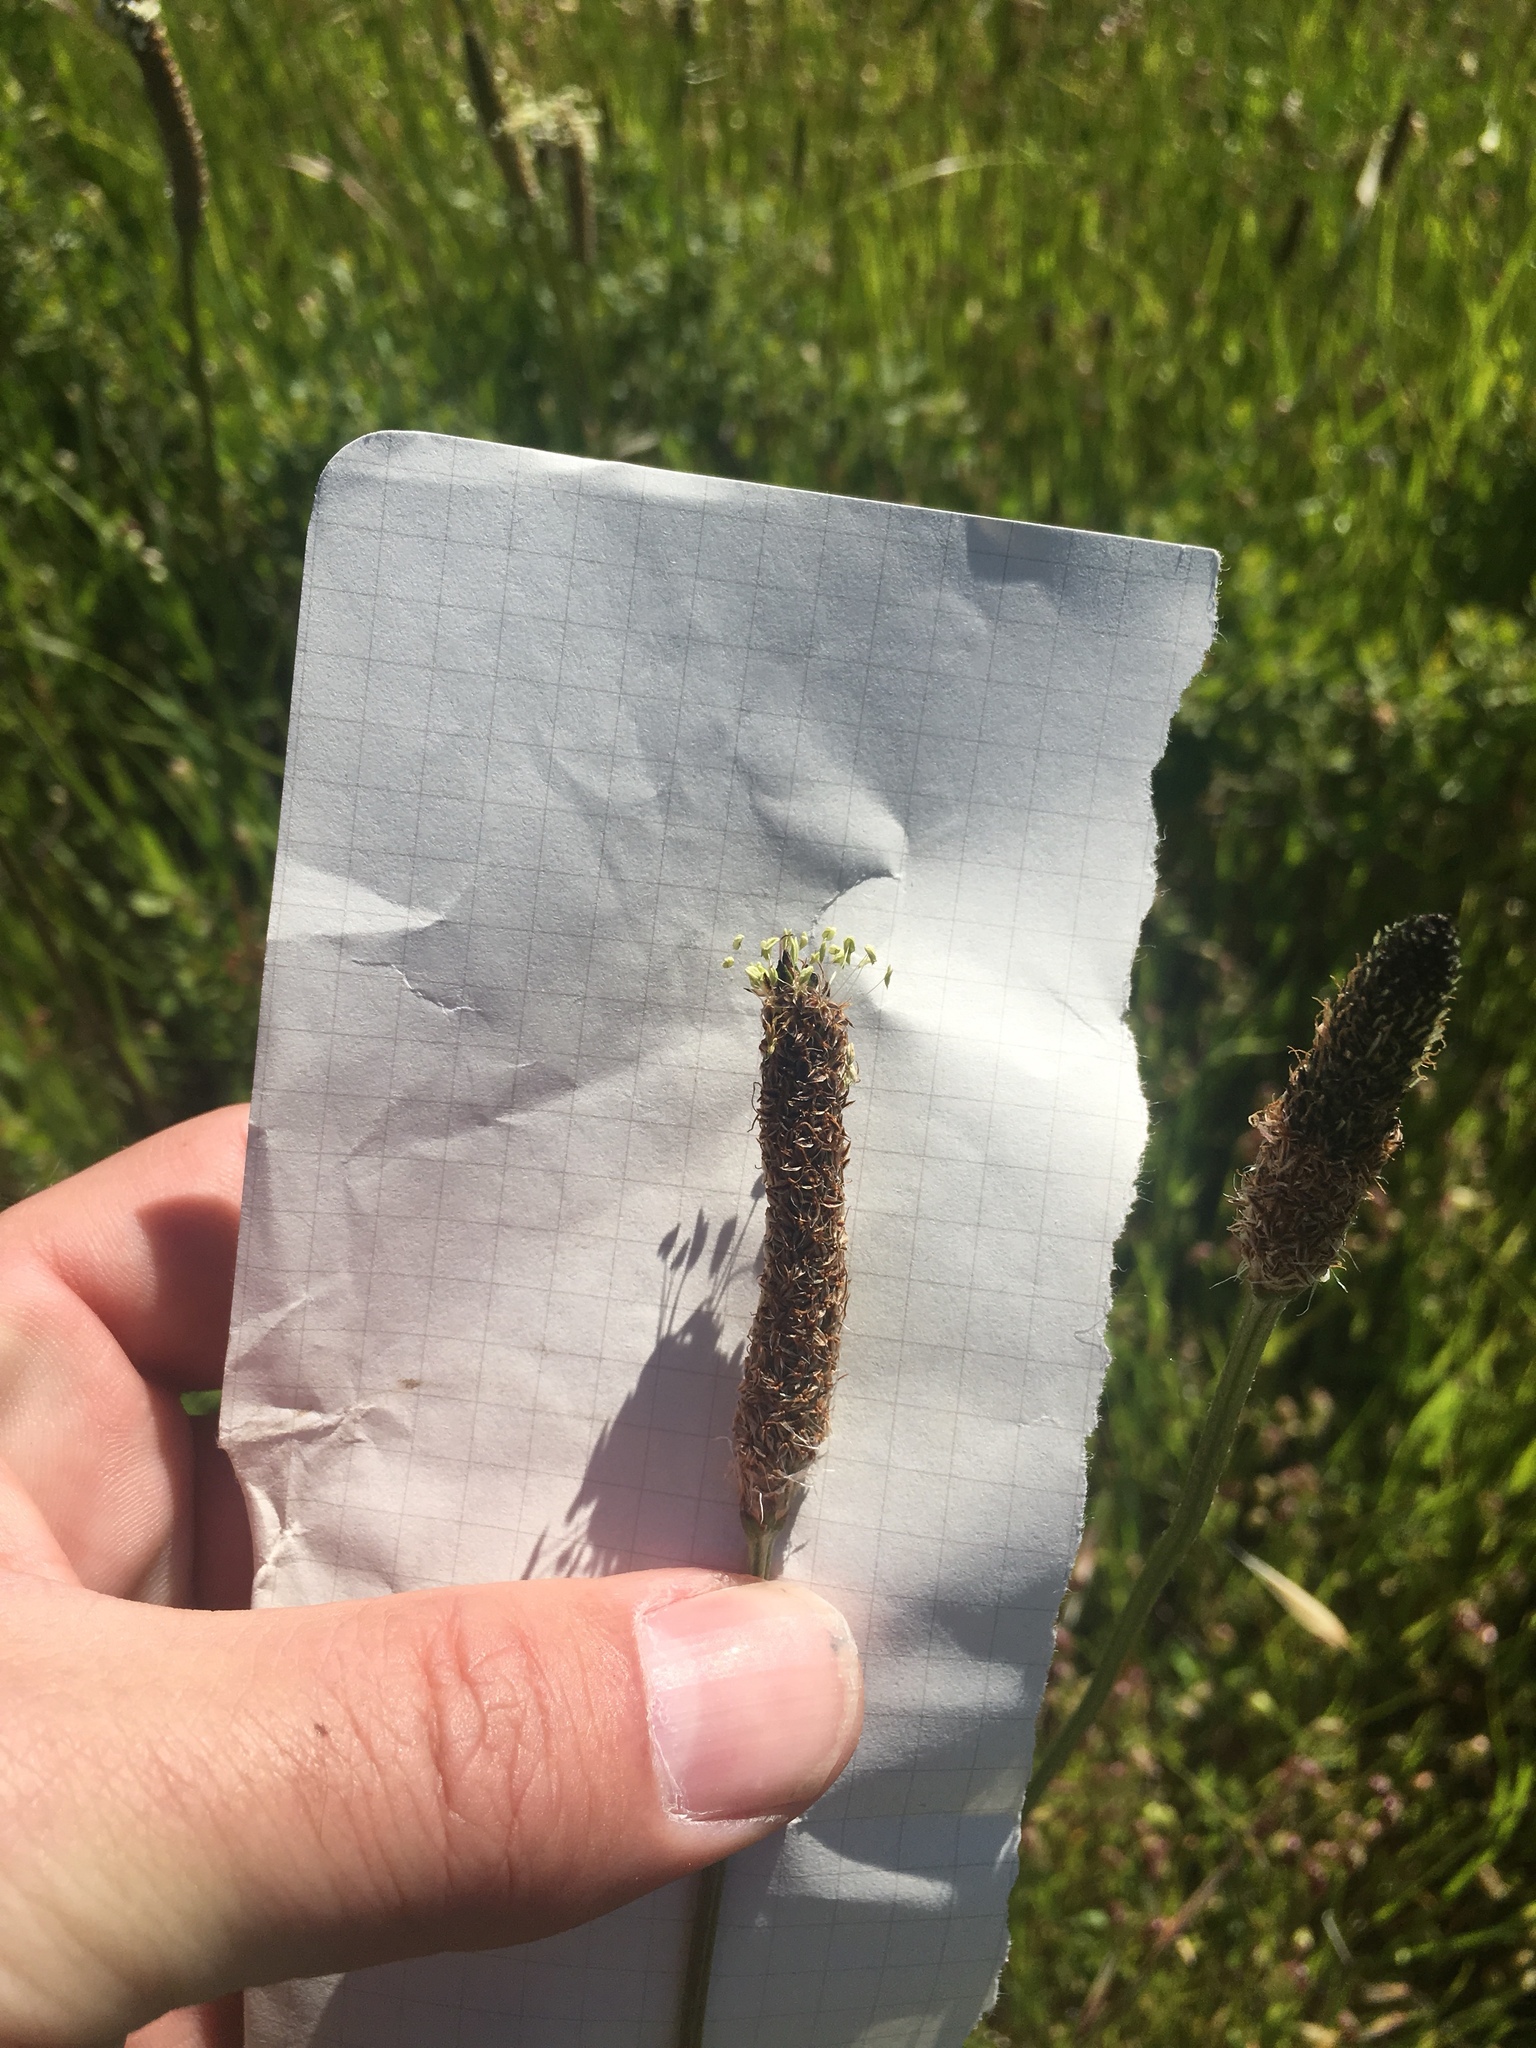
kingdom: Plantae
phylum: Tracheophyta
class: Magnoliopsida
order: Lamiales
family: Plantaginaceae
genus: Plantago
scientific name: Plantago lanceolata
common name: Ribwort plantain
